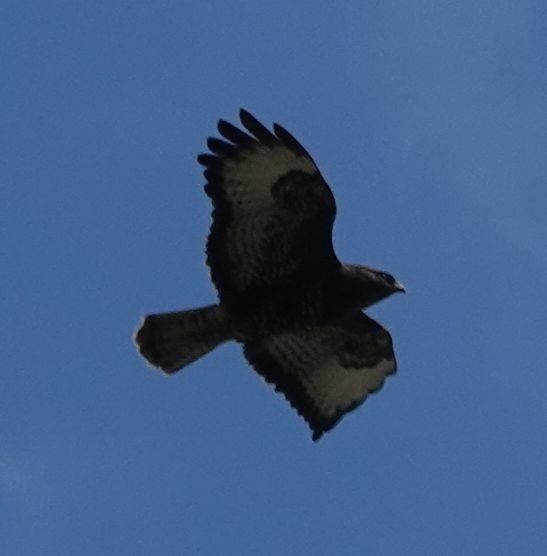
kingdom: Animalia
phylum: Chordata
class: Aves
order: Accipitriformes
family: Accipitridae
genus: Buteo
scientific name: Buteo buteo
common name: Common buzzard
